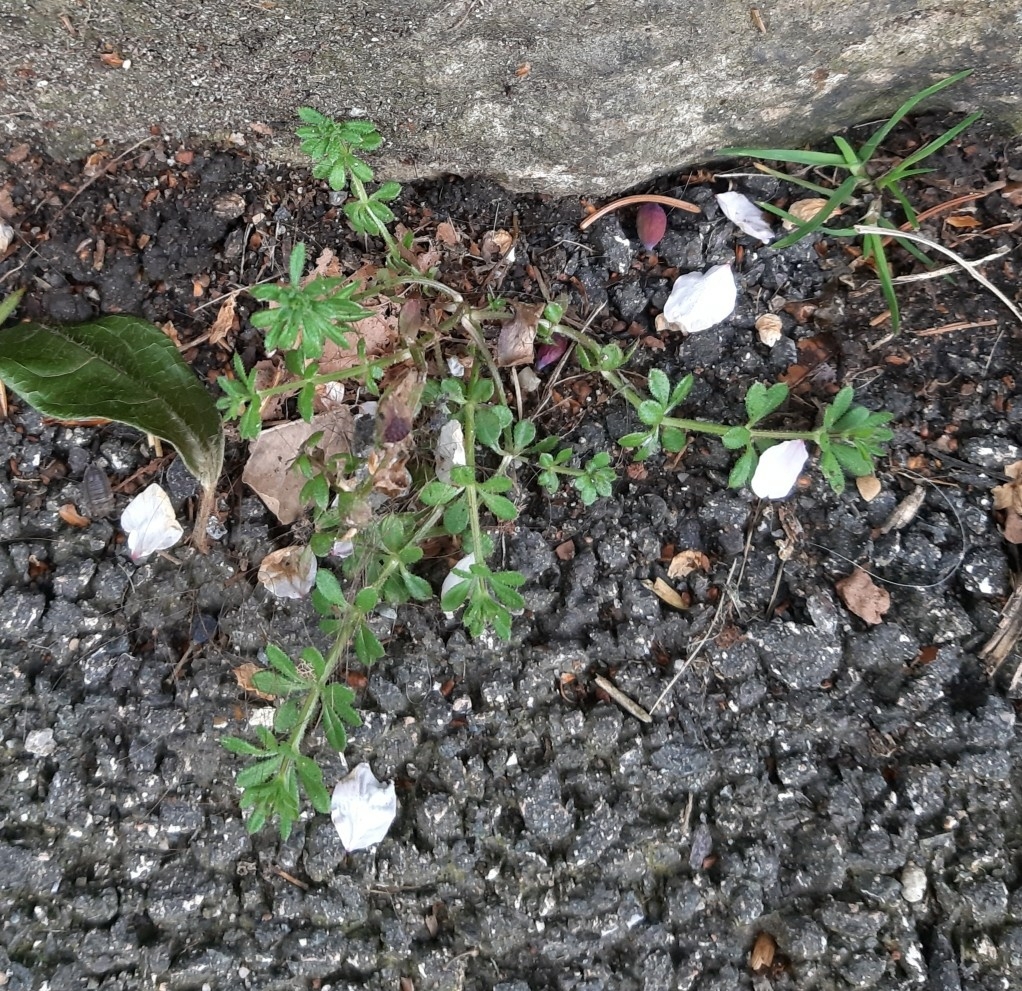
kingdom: Plantae
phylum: Tracheophyta
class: Magnoliopsida
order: Gentianales
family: Rubiaceae
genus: Galium
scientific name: Galium aparine
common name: Cleavers
